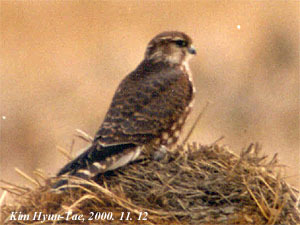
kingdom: Animalia
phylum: Chordata
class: Aves
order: Falconiformes
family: Falconidae
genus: Falco
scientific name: Falco columbarius
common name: Merlin
